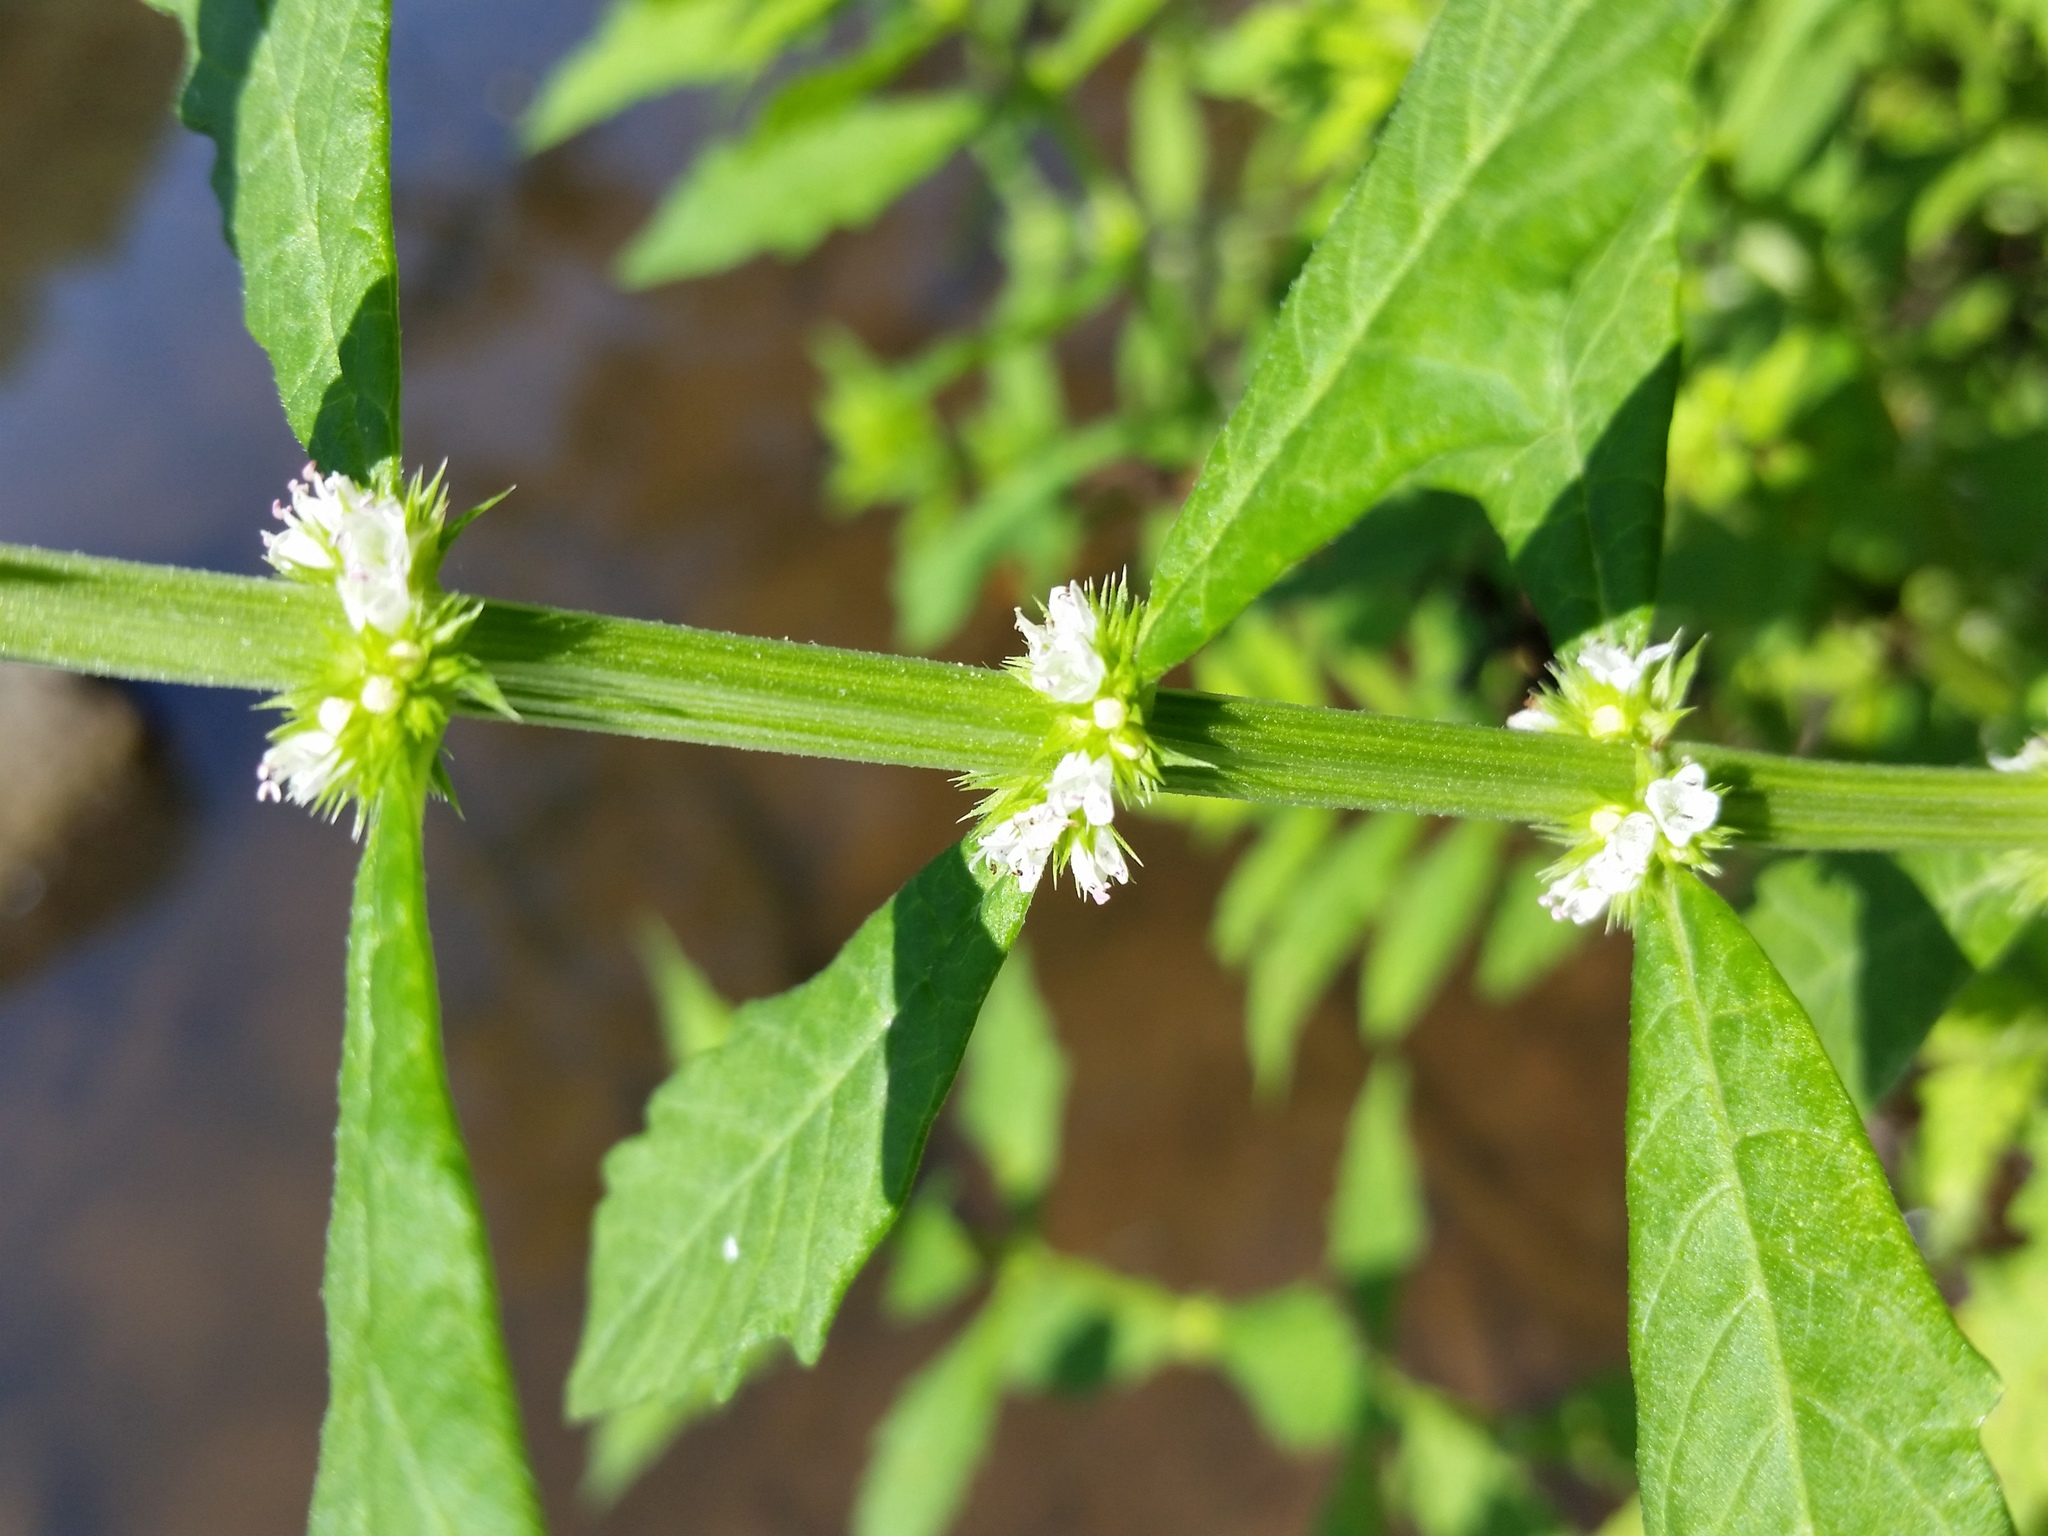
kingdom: Plantae
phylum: Tracheophyta
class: Magnoliopsida
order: Lamiales
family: Lamiaceae
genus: Lycopus
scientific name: Lycopus europaeus
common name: European bugleweed
